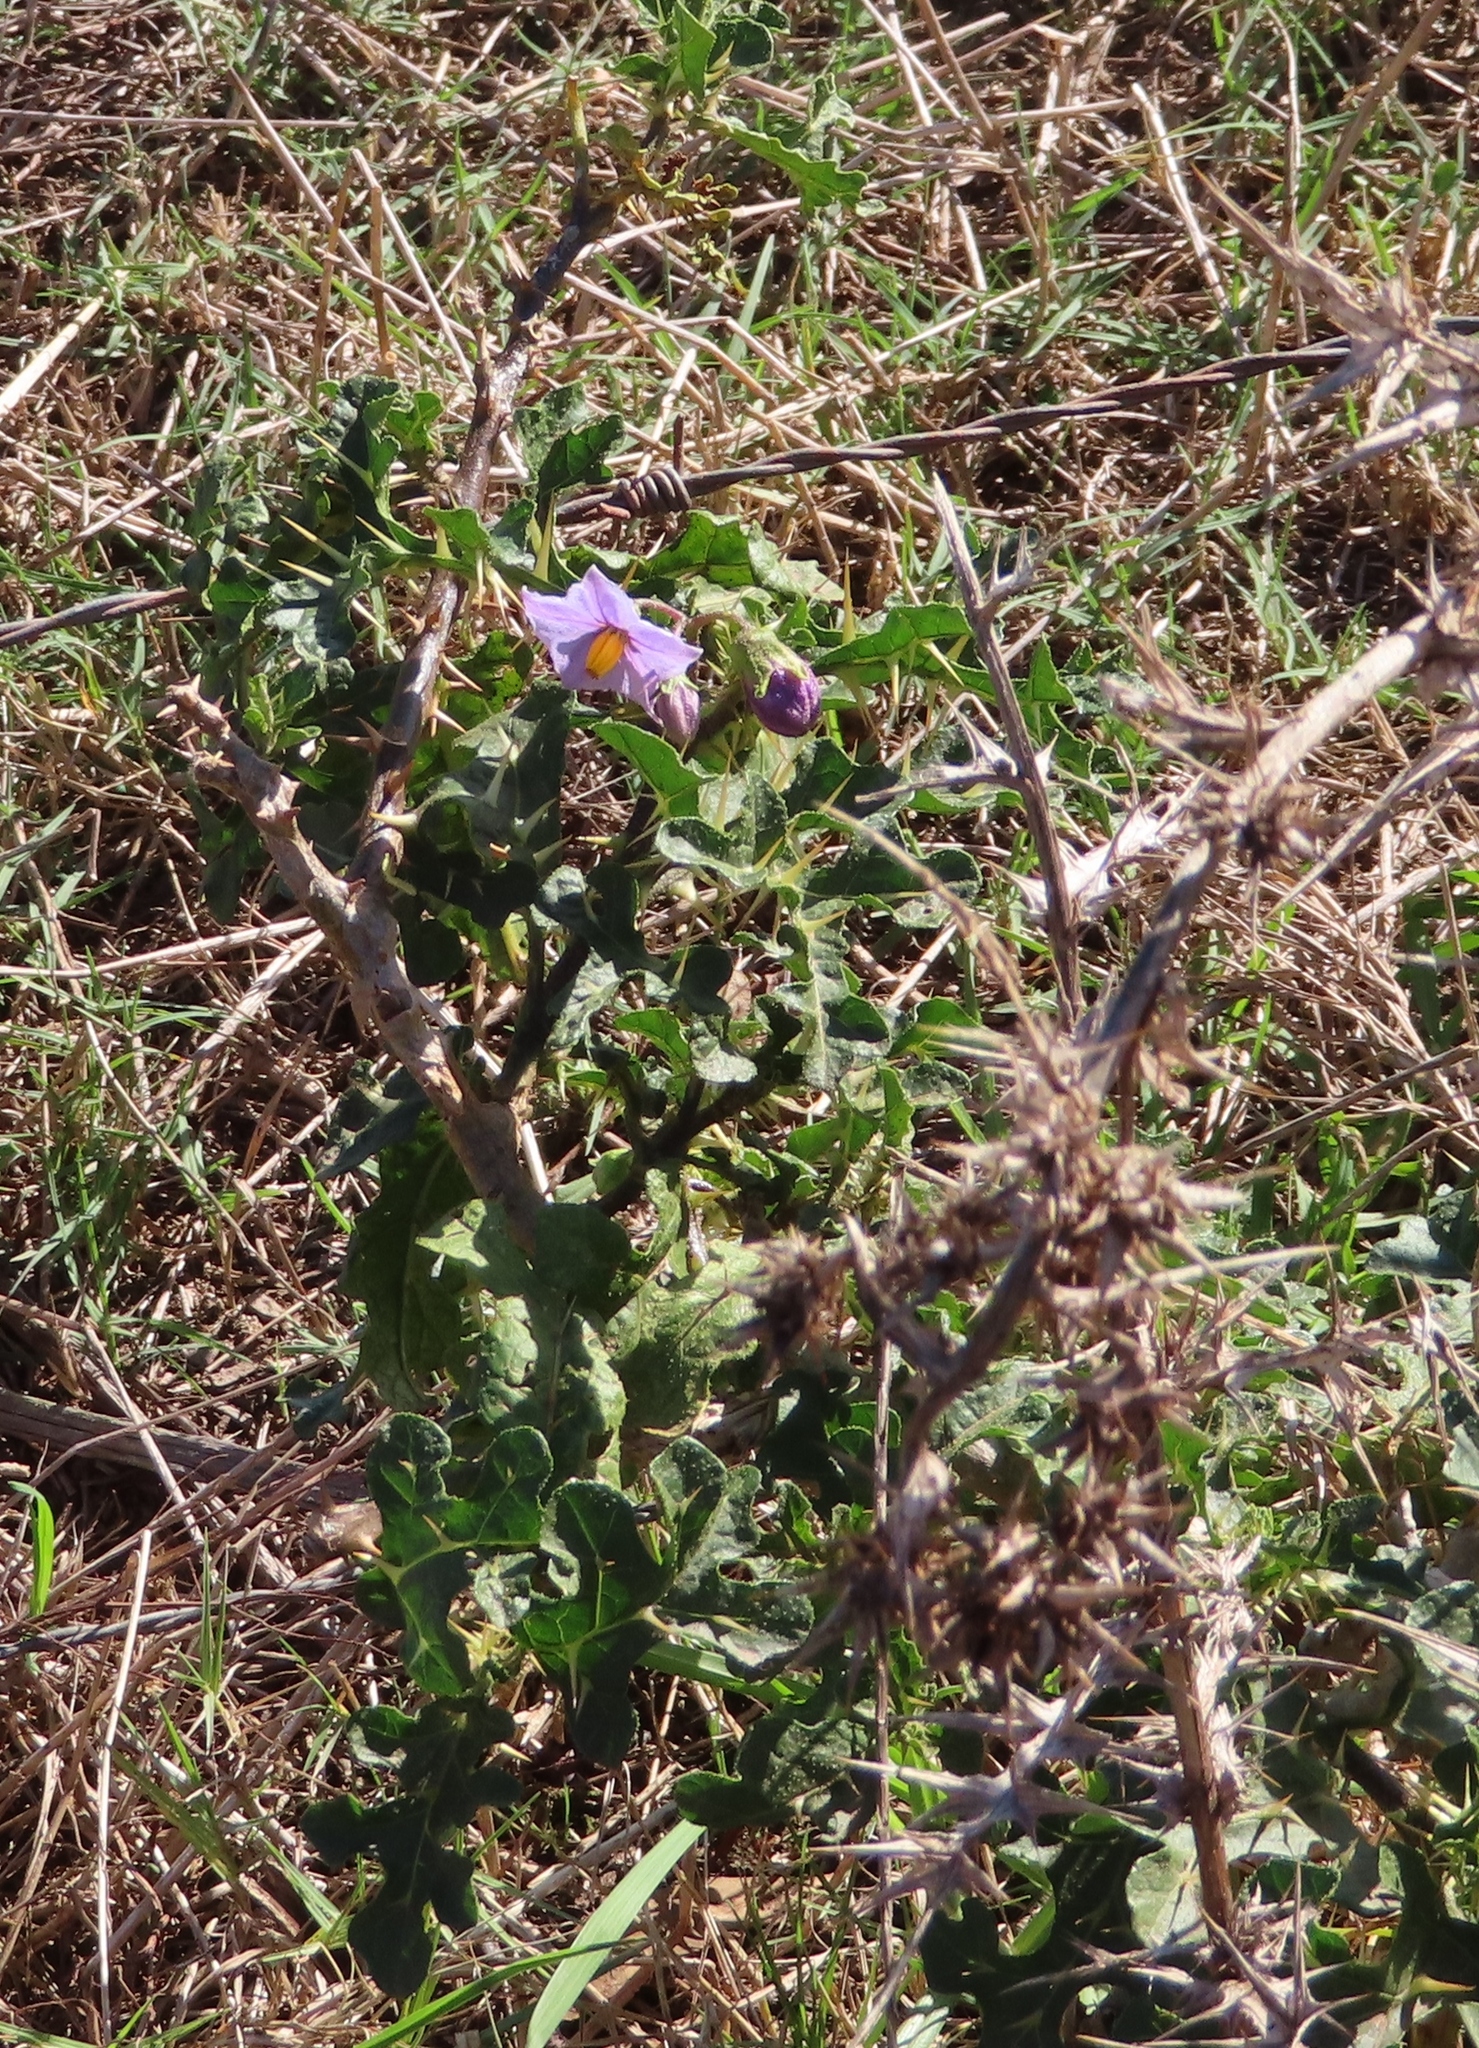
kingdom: Plantae
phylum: Tracheophyta
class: Magnoliopsida
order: Solanales
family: Solanaceae
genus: Solanum
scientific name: Solanum linnaeanum
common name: Nightshade
